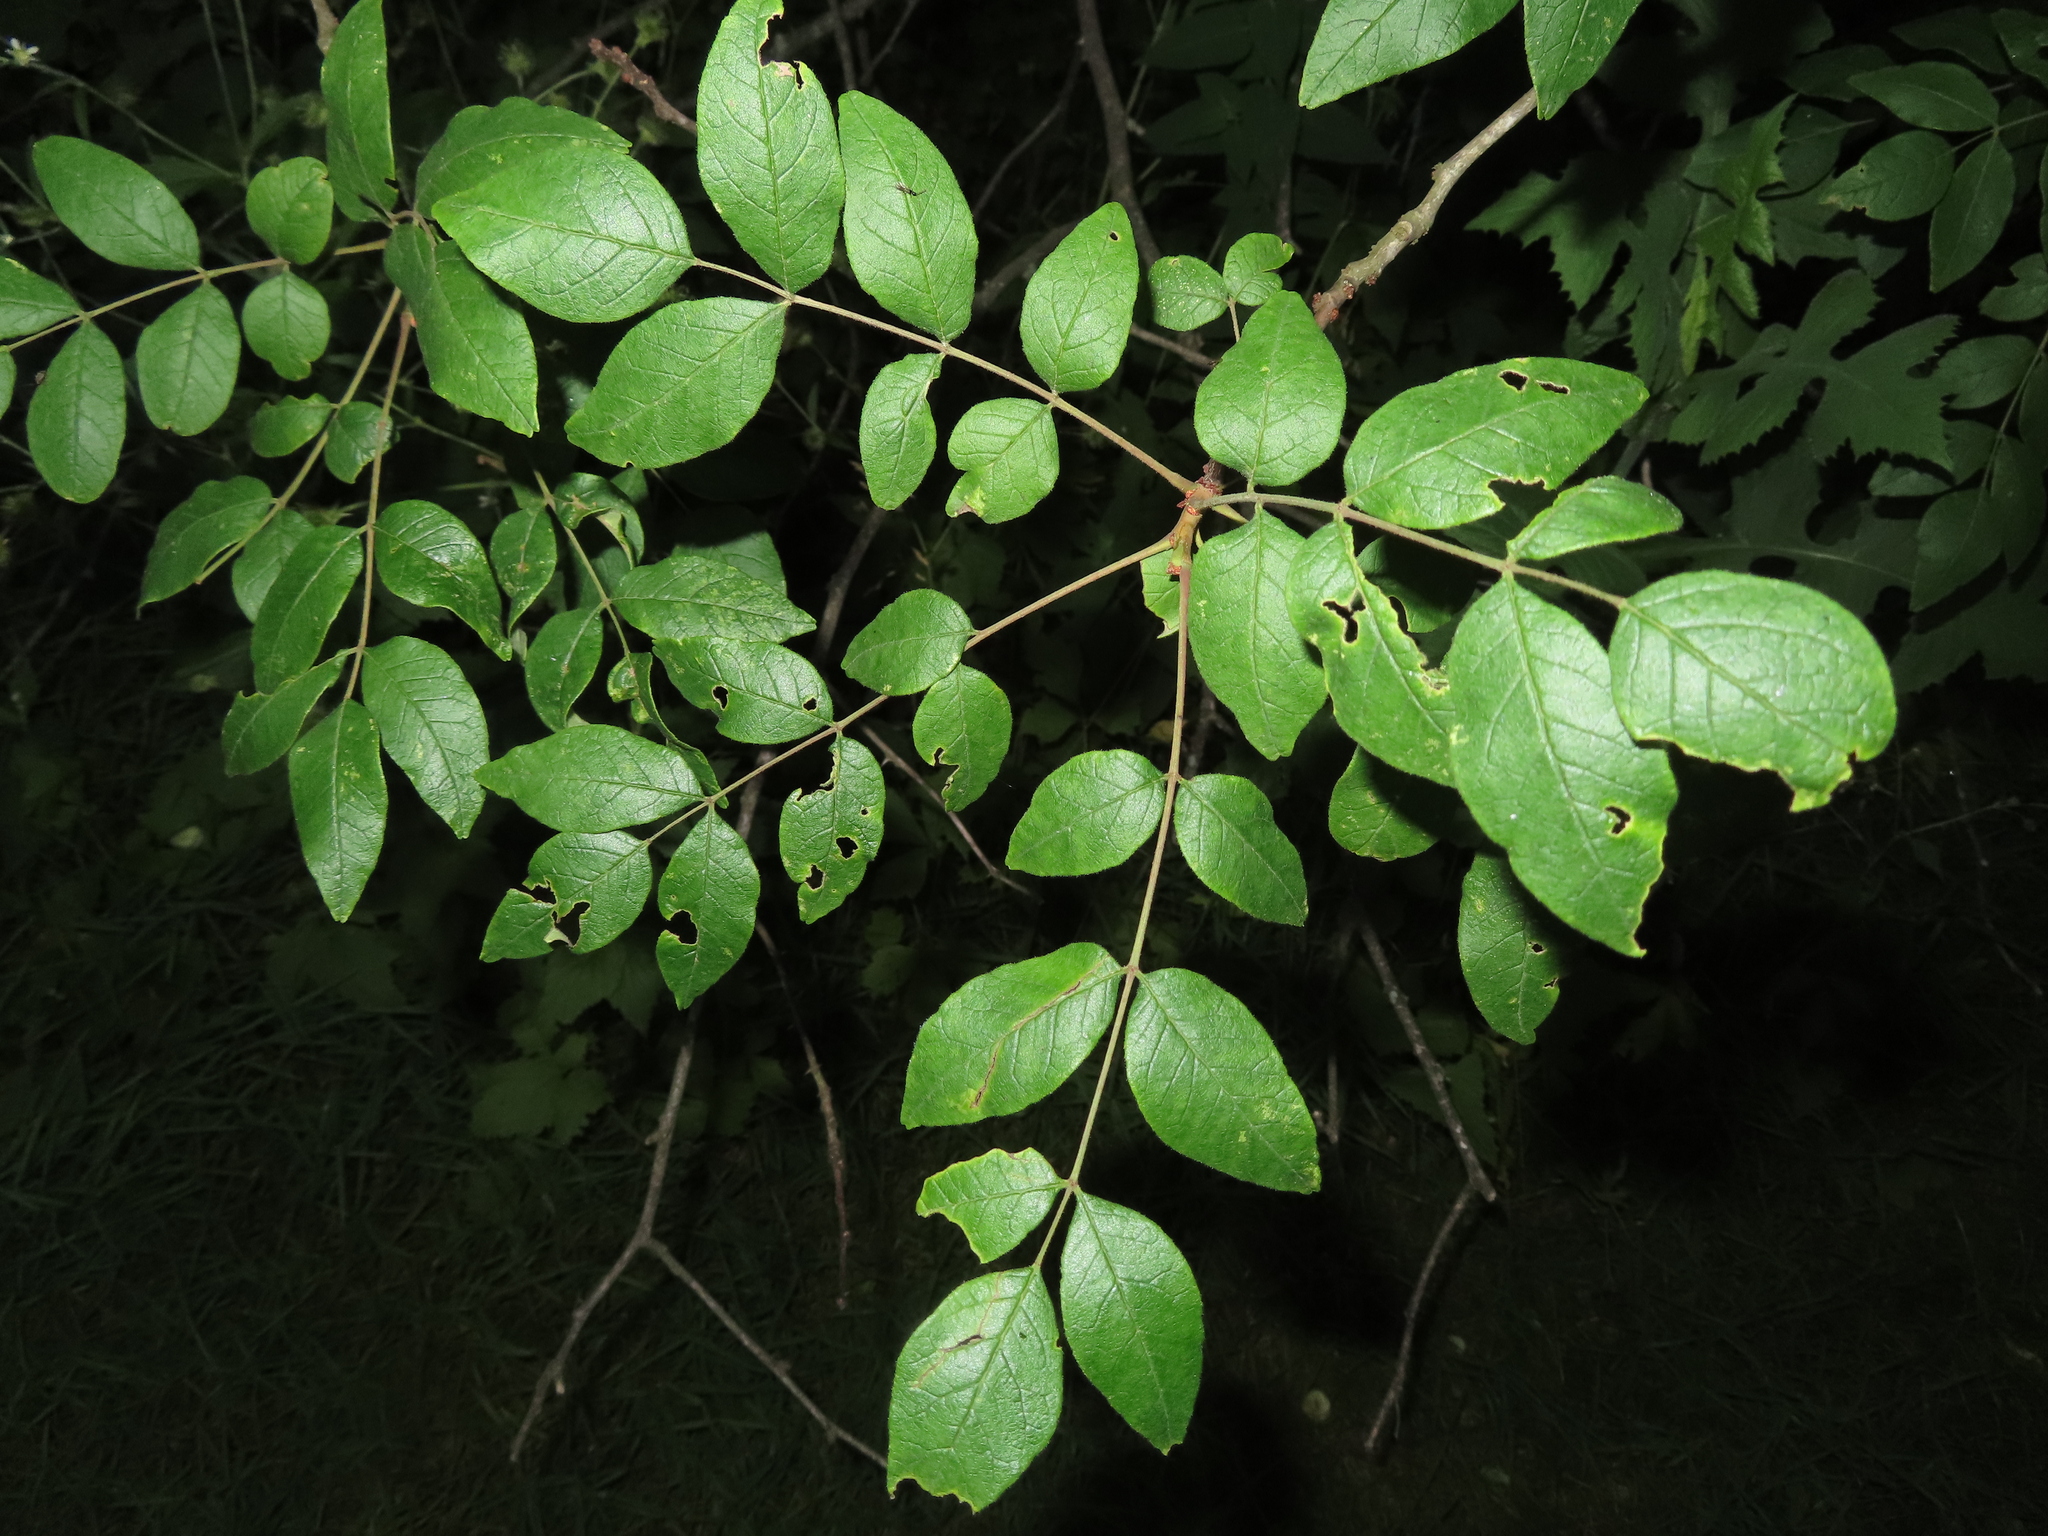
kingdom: Plantae
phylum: Tracheophyta
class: Magnoliopsida
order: Sapindales
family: Rutaceae
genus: Zanthoxylum
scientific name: Zanthoxylum americanum
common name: Northern prickly-ash
